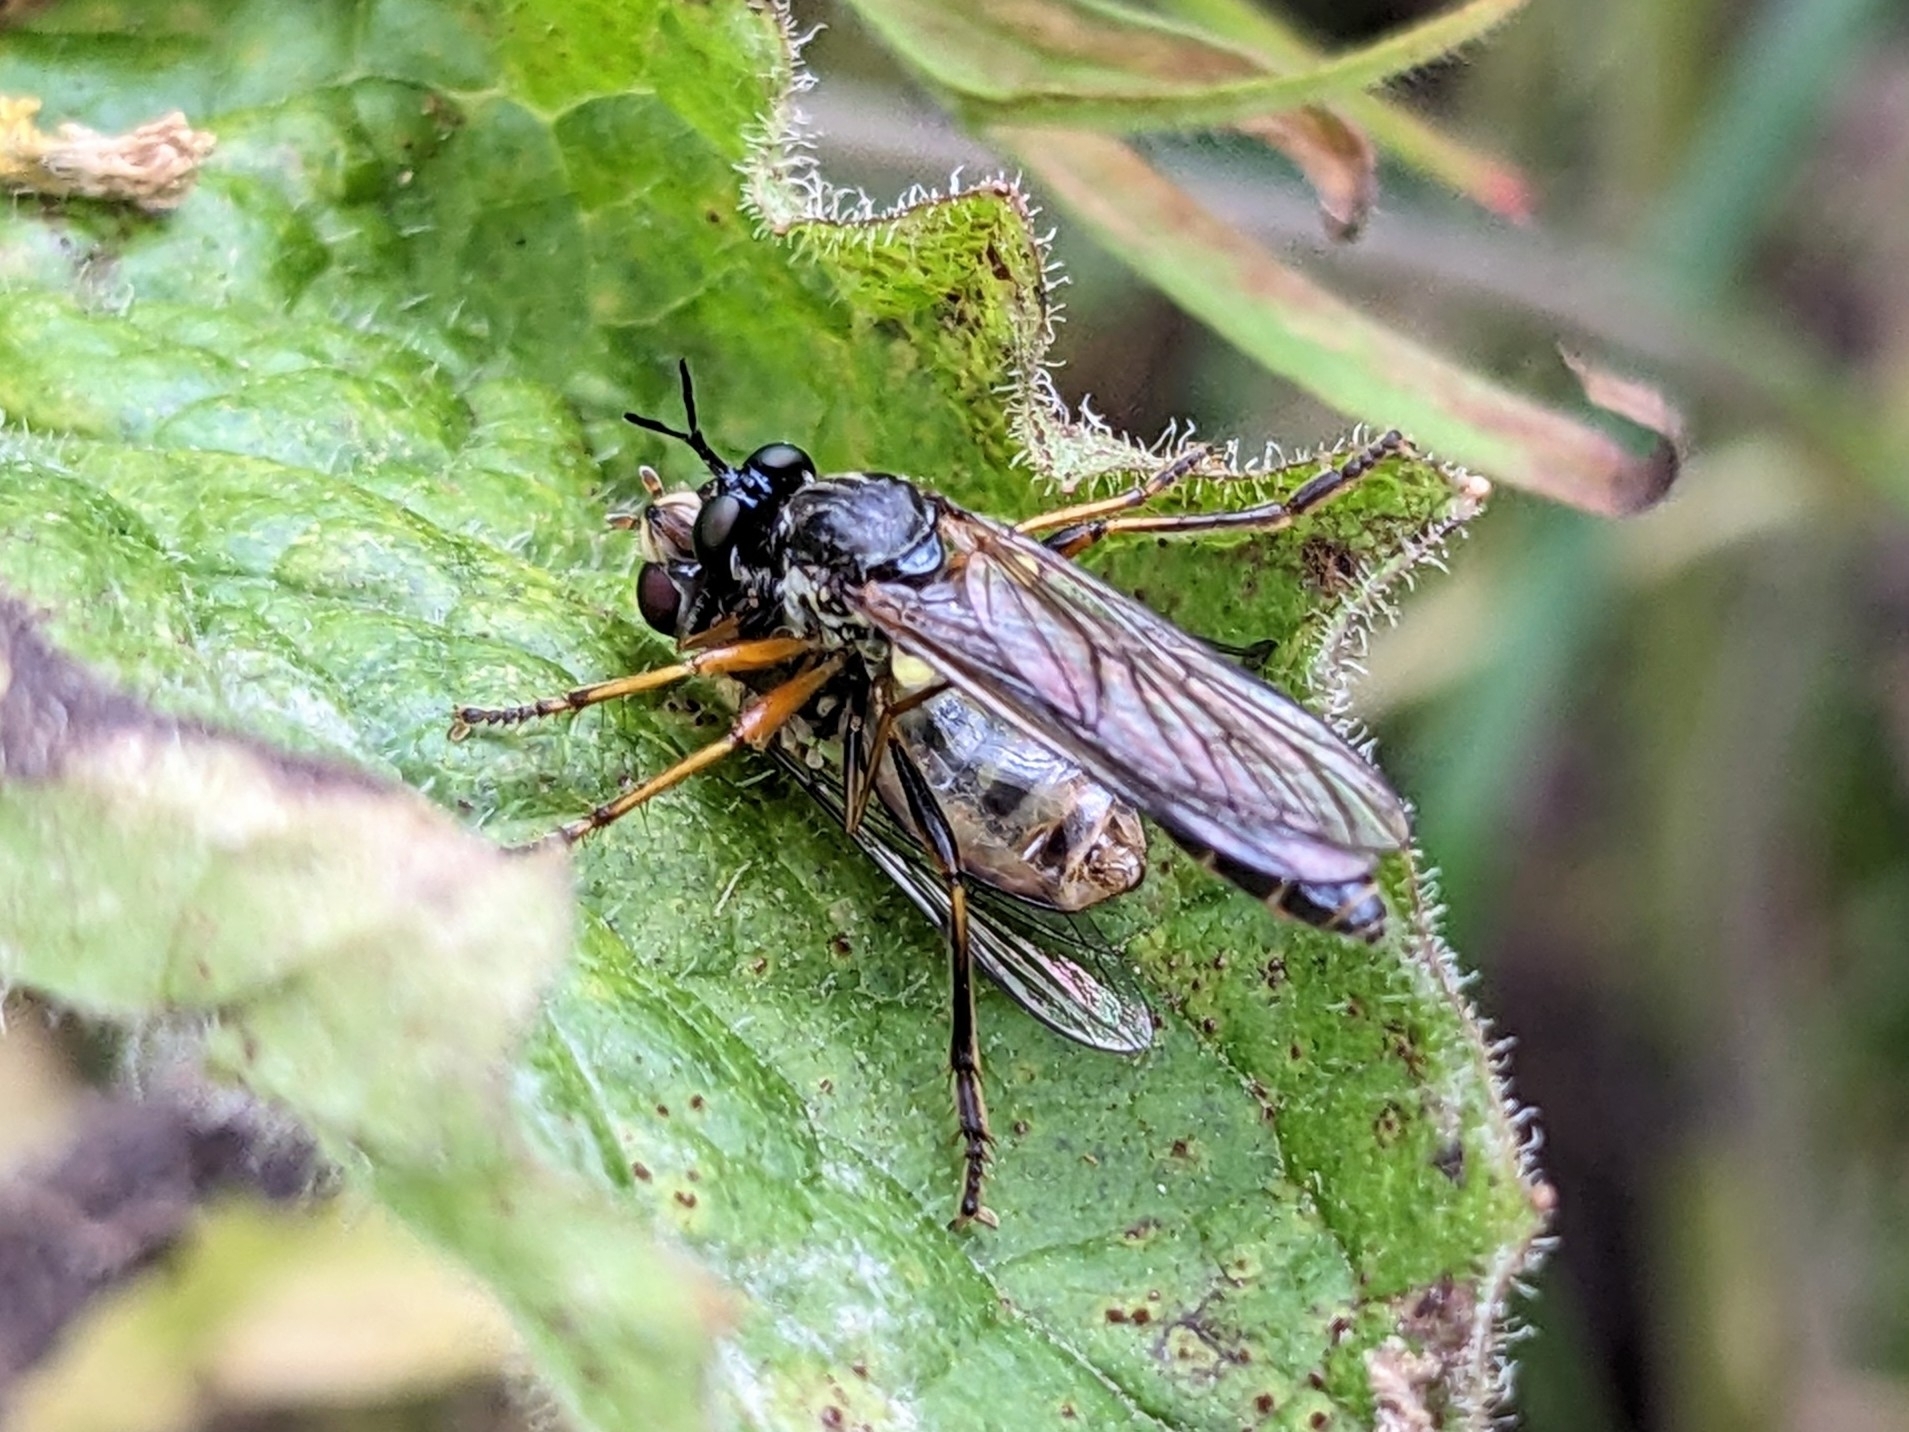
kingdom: Animalia
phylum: Arthropoda
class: Insecta
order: Diptera
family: Asilidae
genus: Dioctria
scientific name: Dioctria hyalipennis
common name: Stripe-legged robberfly
